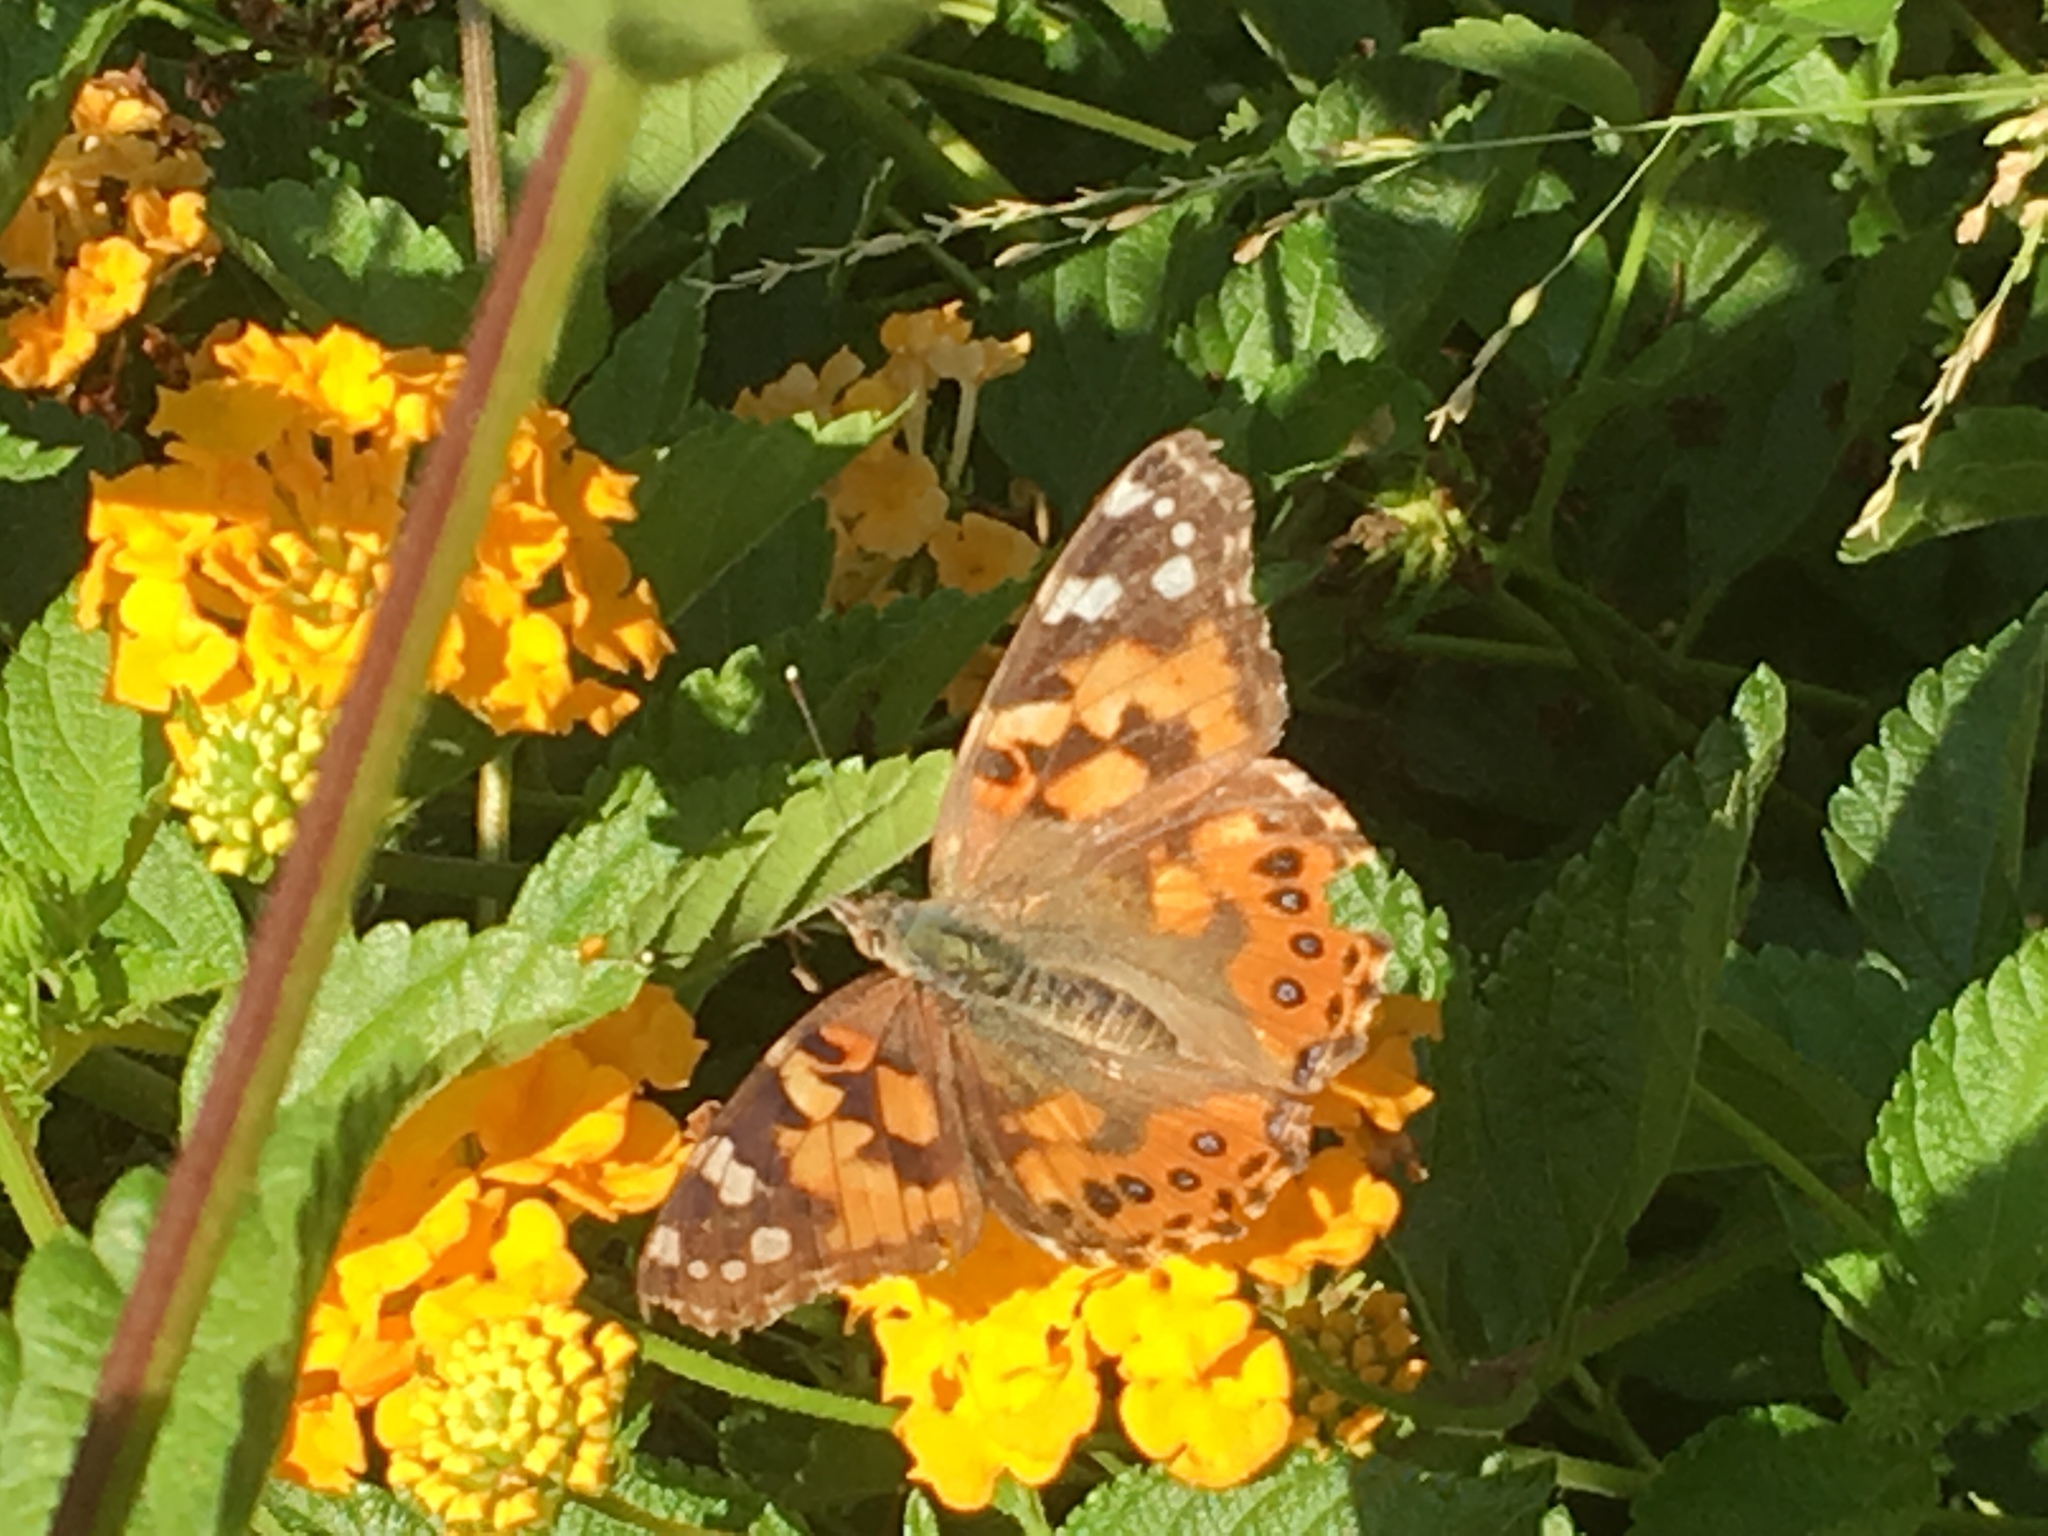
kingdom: Animalia
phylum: Arthropoda
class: Insecta
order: Lepidoptera
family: Nymphalidae
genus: Vanessa
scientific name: Vanessa cardui
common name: Painted lady
